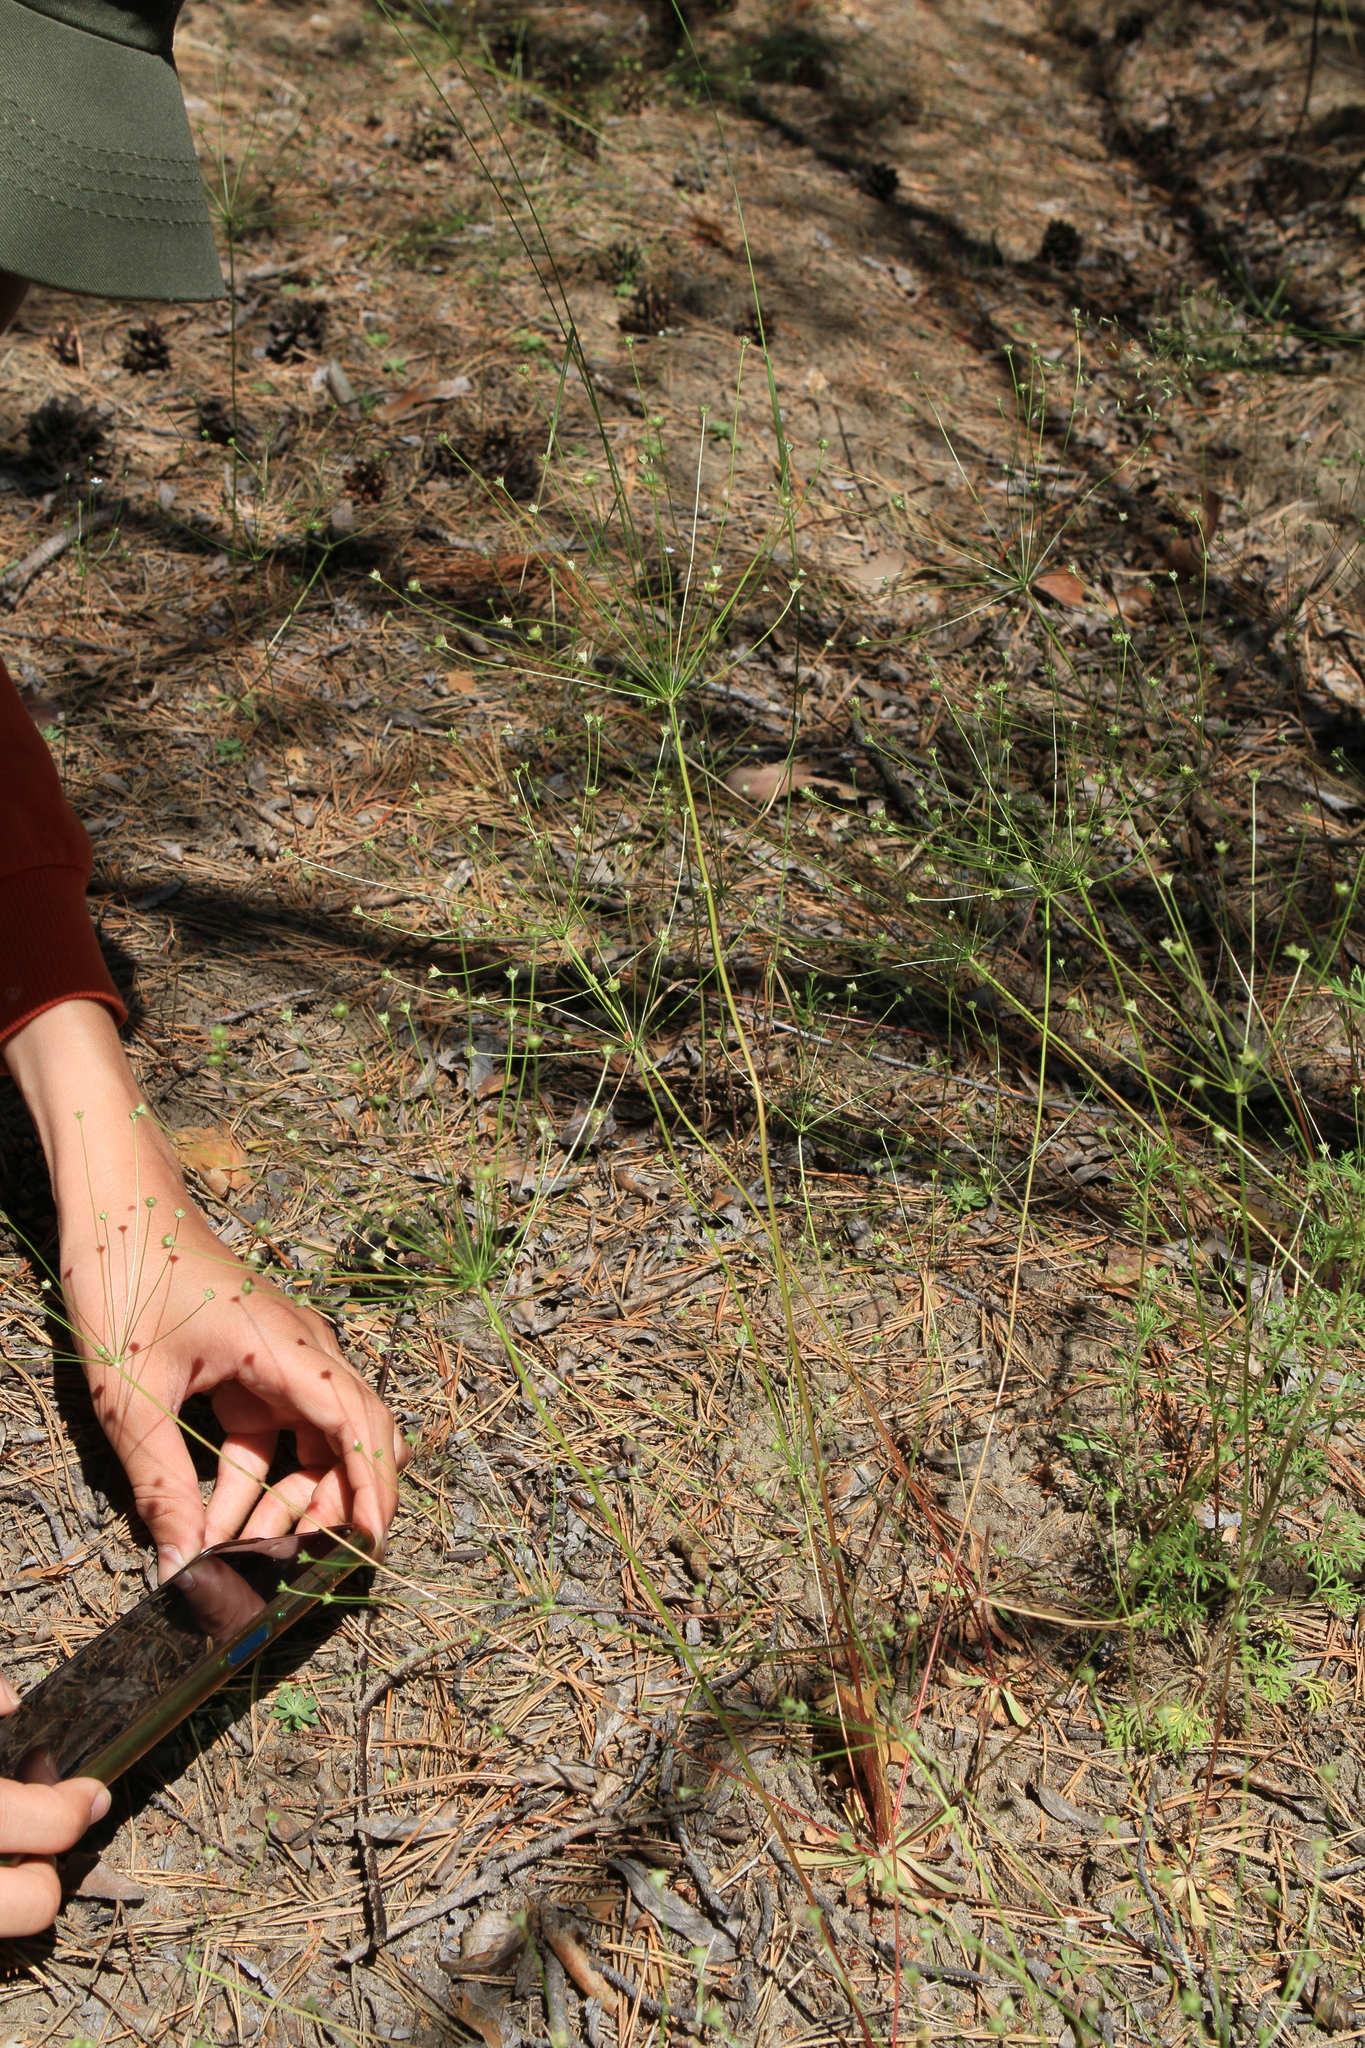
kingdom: Plantae
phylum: Tracheophyta
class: Magnoliopsida
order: Ericales
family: Primulaceae
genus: Androsace
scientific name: Androsace septentrionalis
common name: Hairy northern fairy-candelabra
